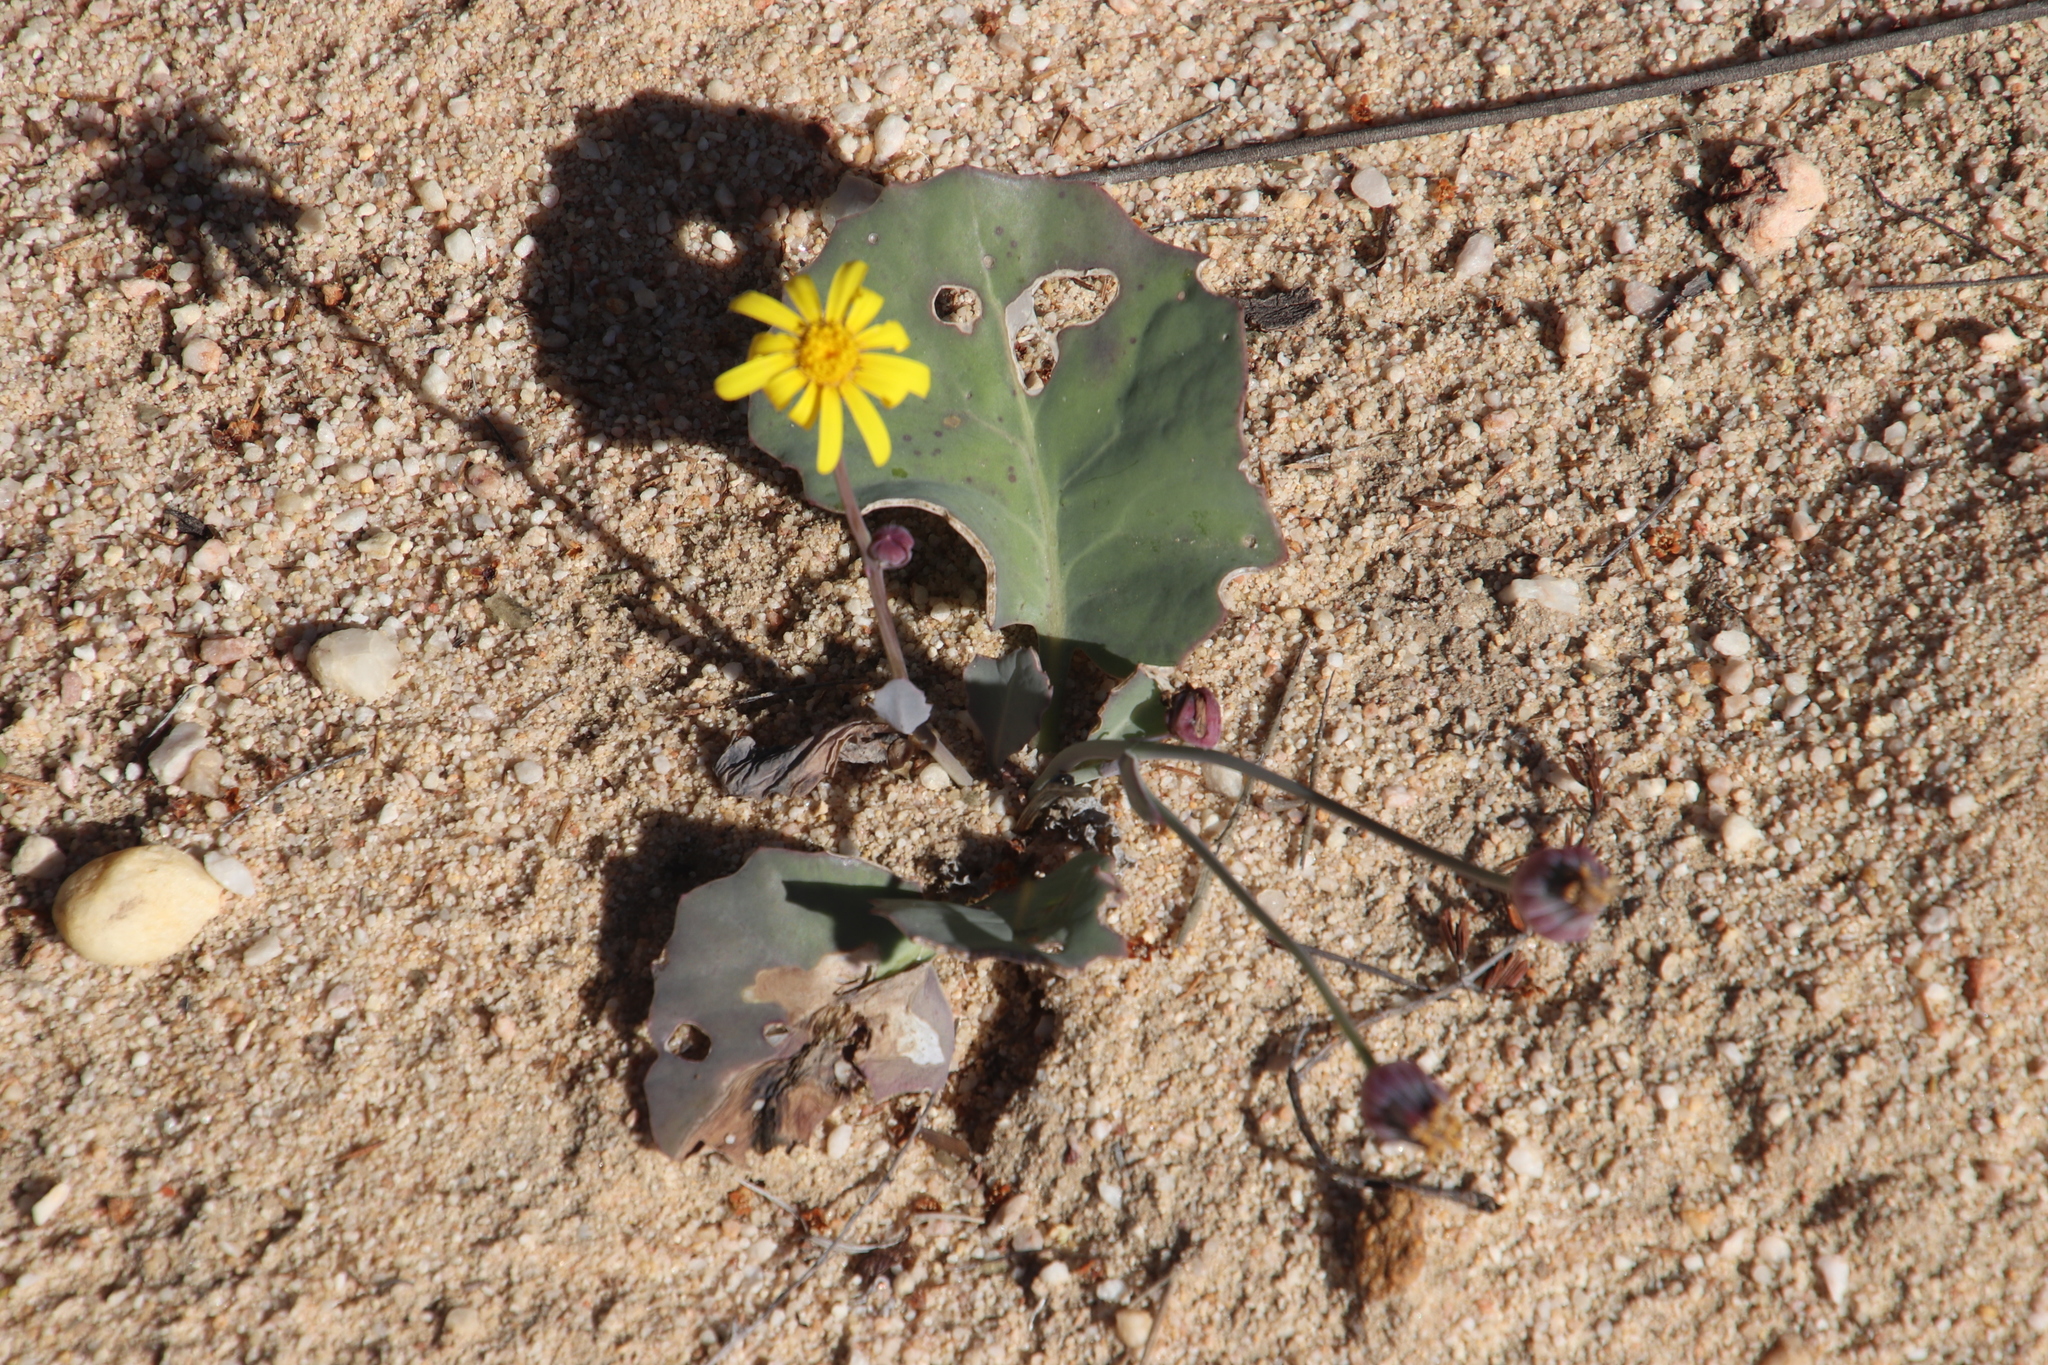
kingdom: Plantae
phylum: Tracheophyta
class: Magnoliopsida
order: Asterales
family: Asteraceae
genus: Othonna
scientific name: Othonna petiolaris
